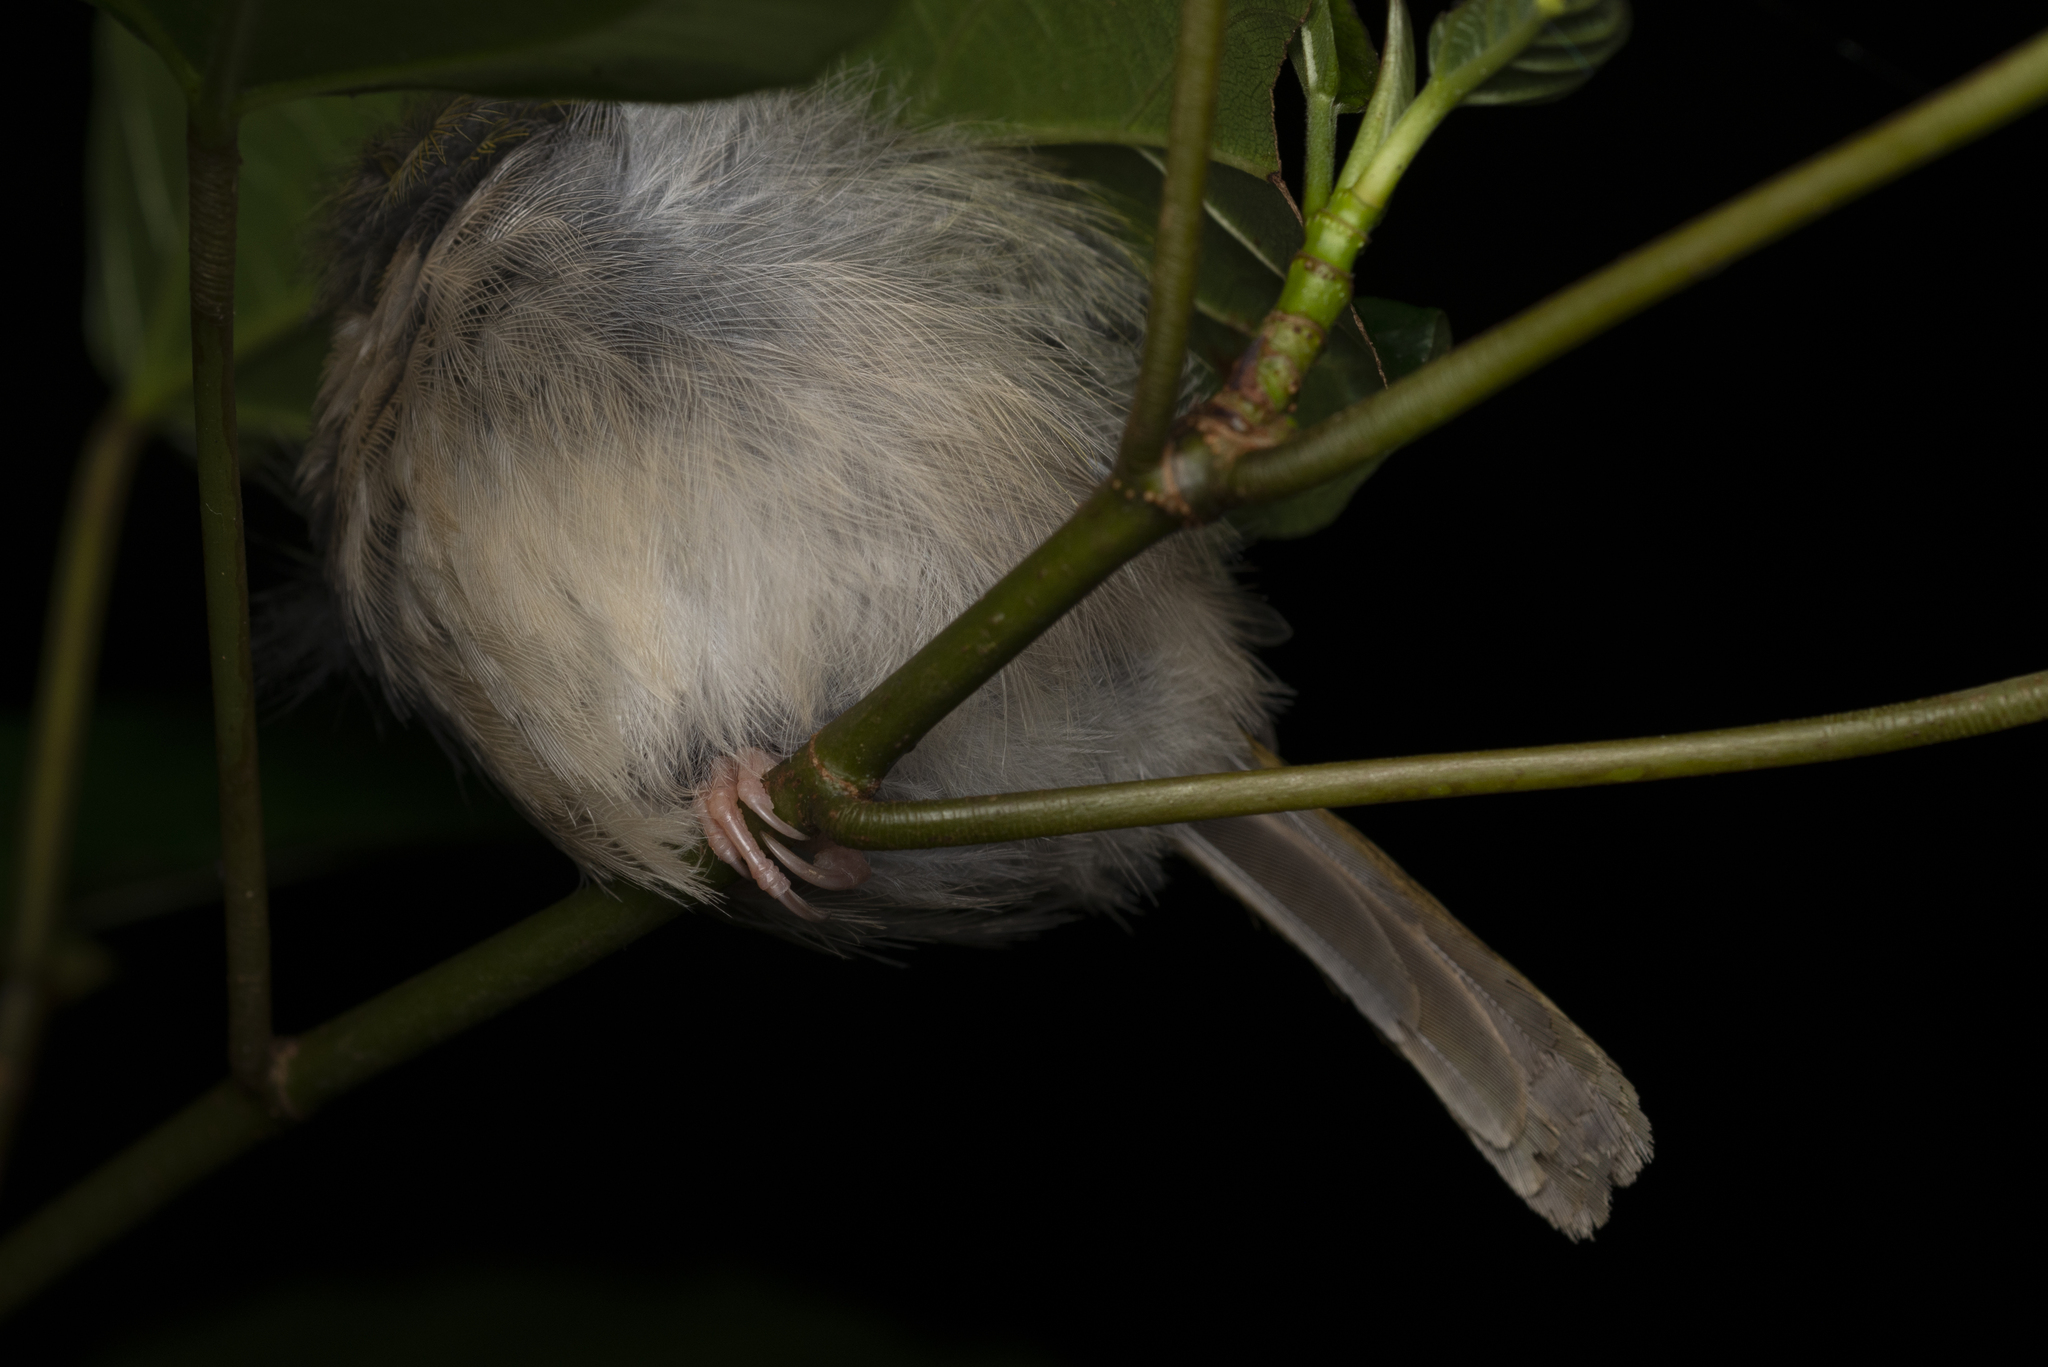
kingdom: Animalia
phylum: Chordata
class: Aves
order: Passeriformes
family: Cisticolidae
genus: Orthotomus
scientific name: Orthotomus sutorius
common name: Common tailorbird
